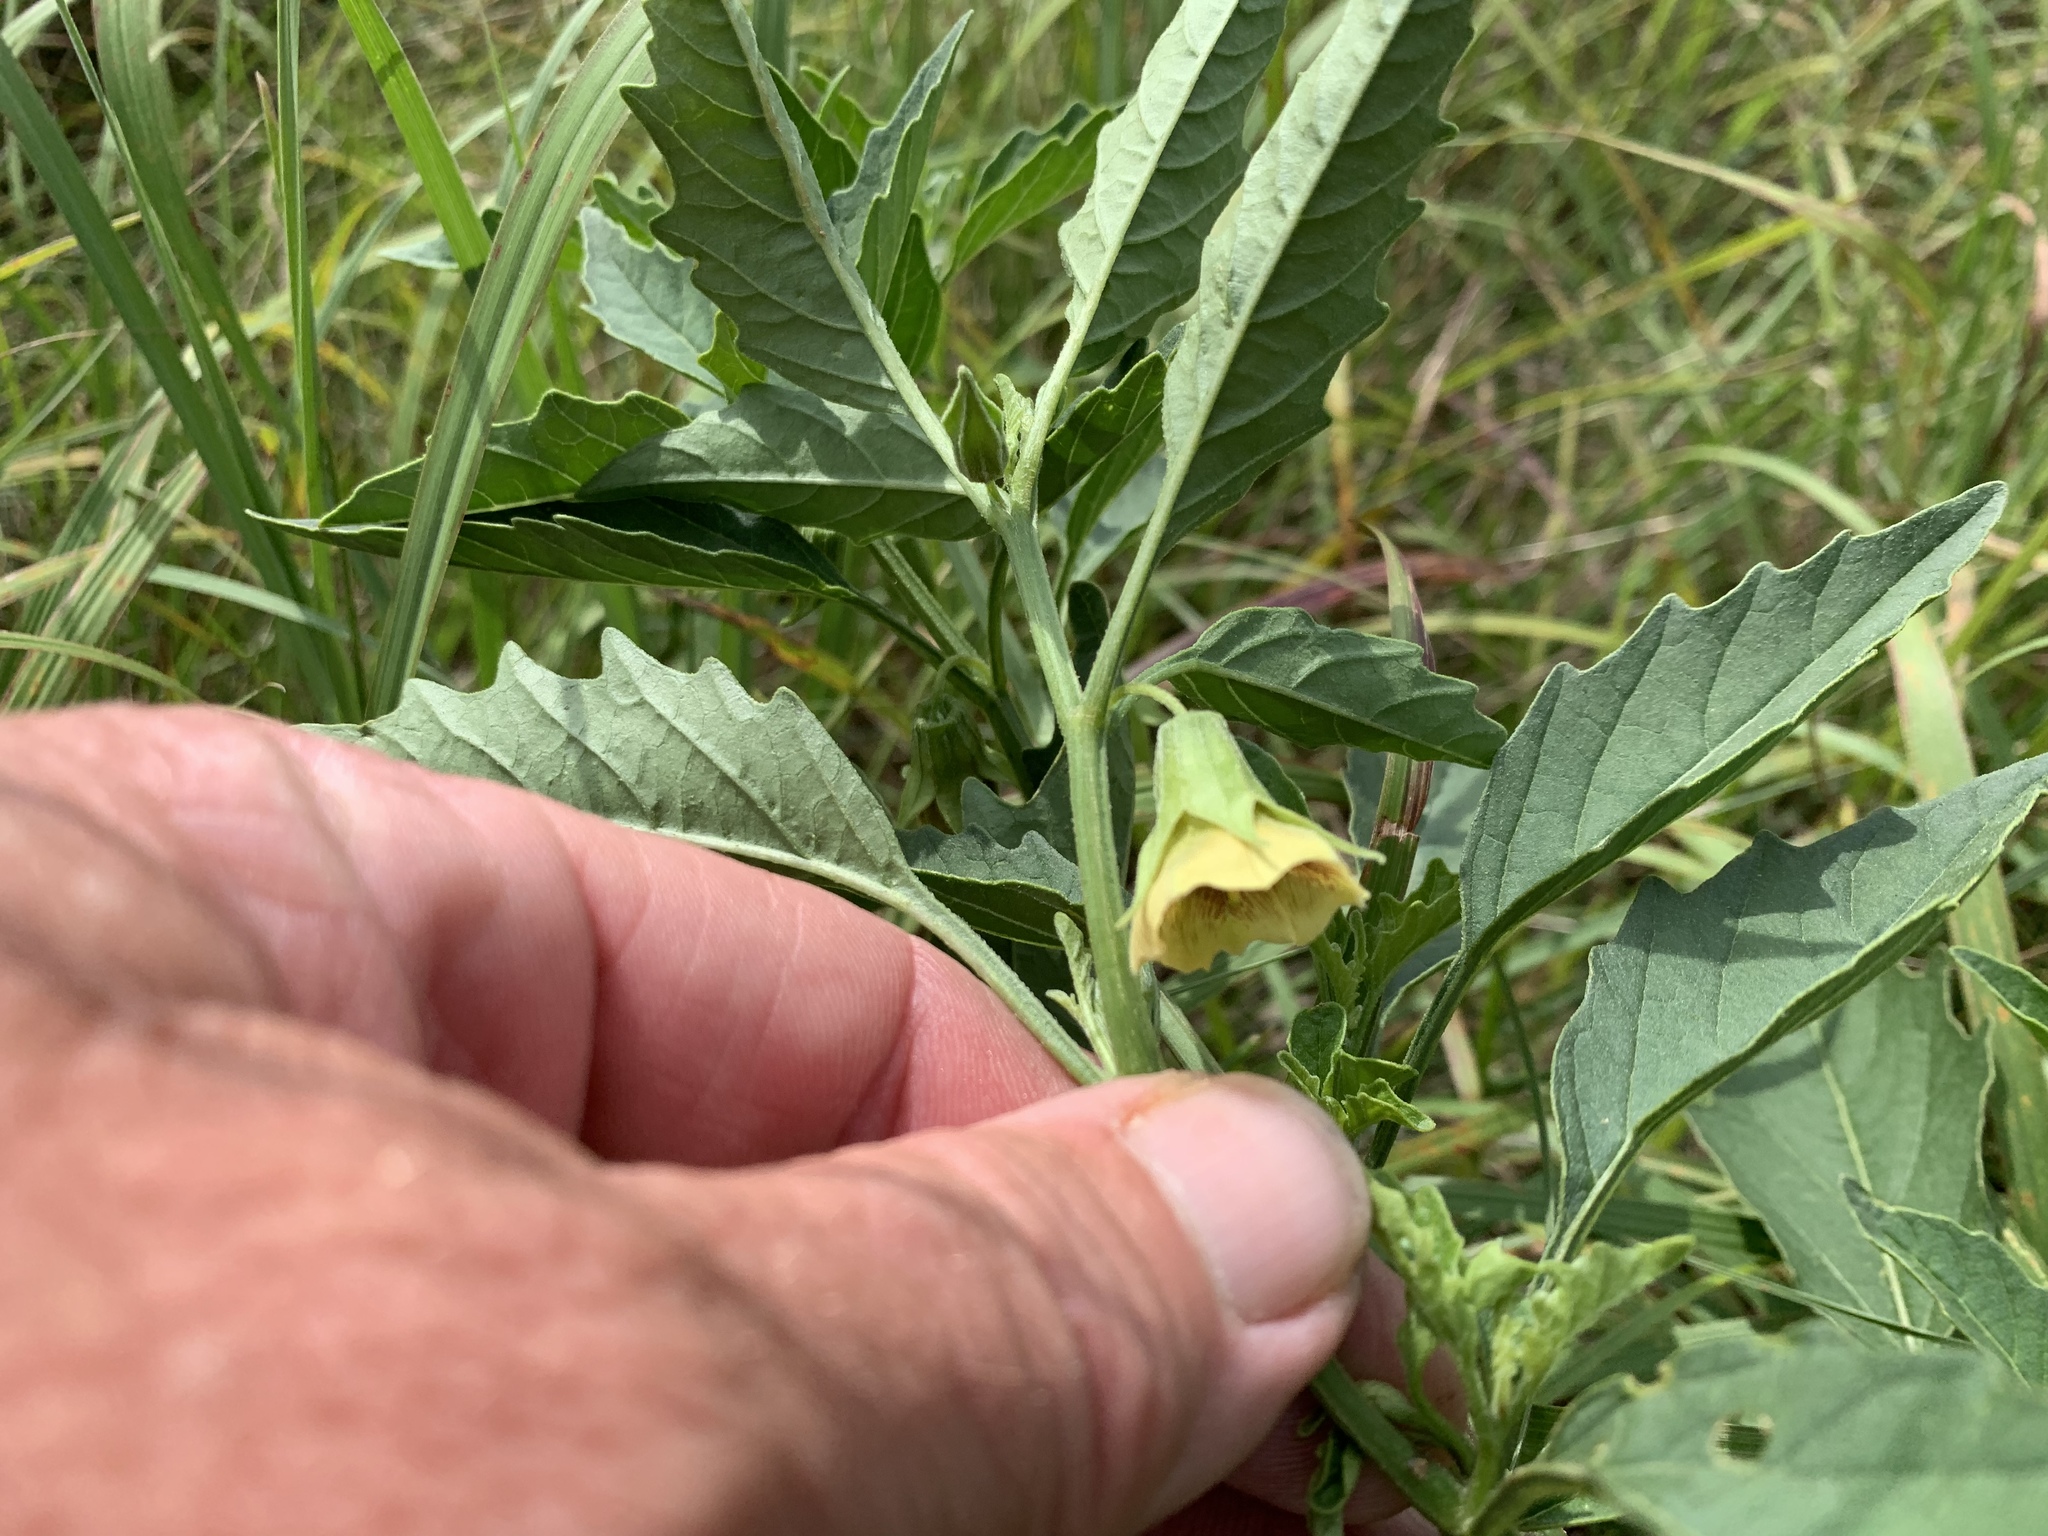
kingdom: Plantae
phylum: Tracheophyta
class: Magnoliopsida
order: Solanales
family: Solanaceae
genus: Physalis
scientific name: Physalis longifolia
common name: Common ground-cherry
